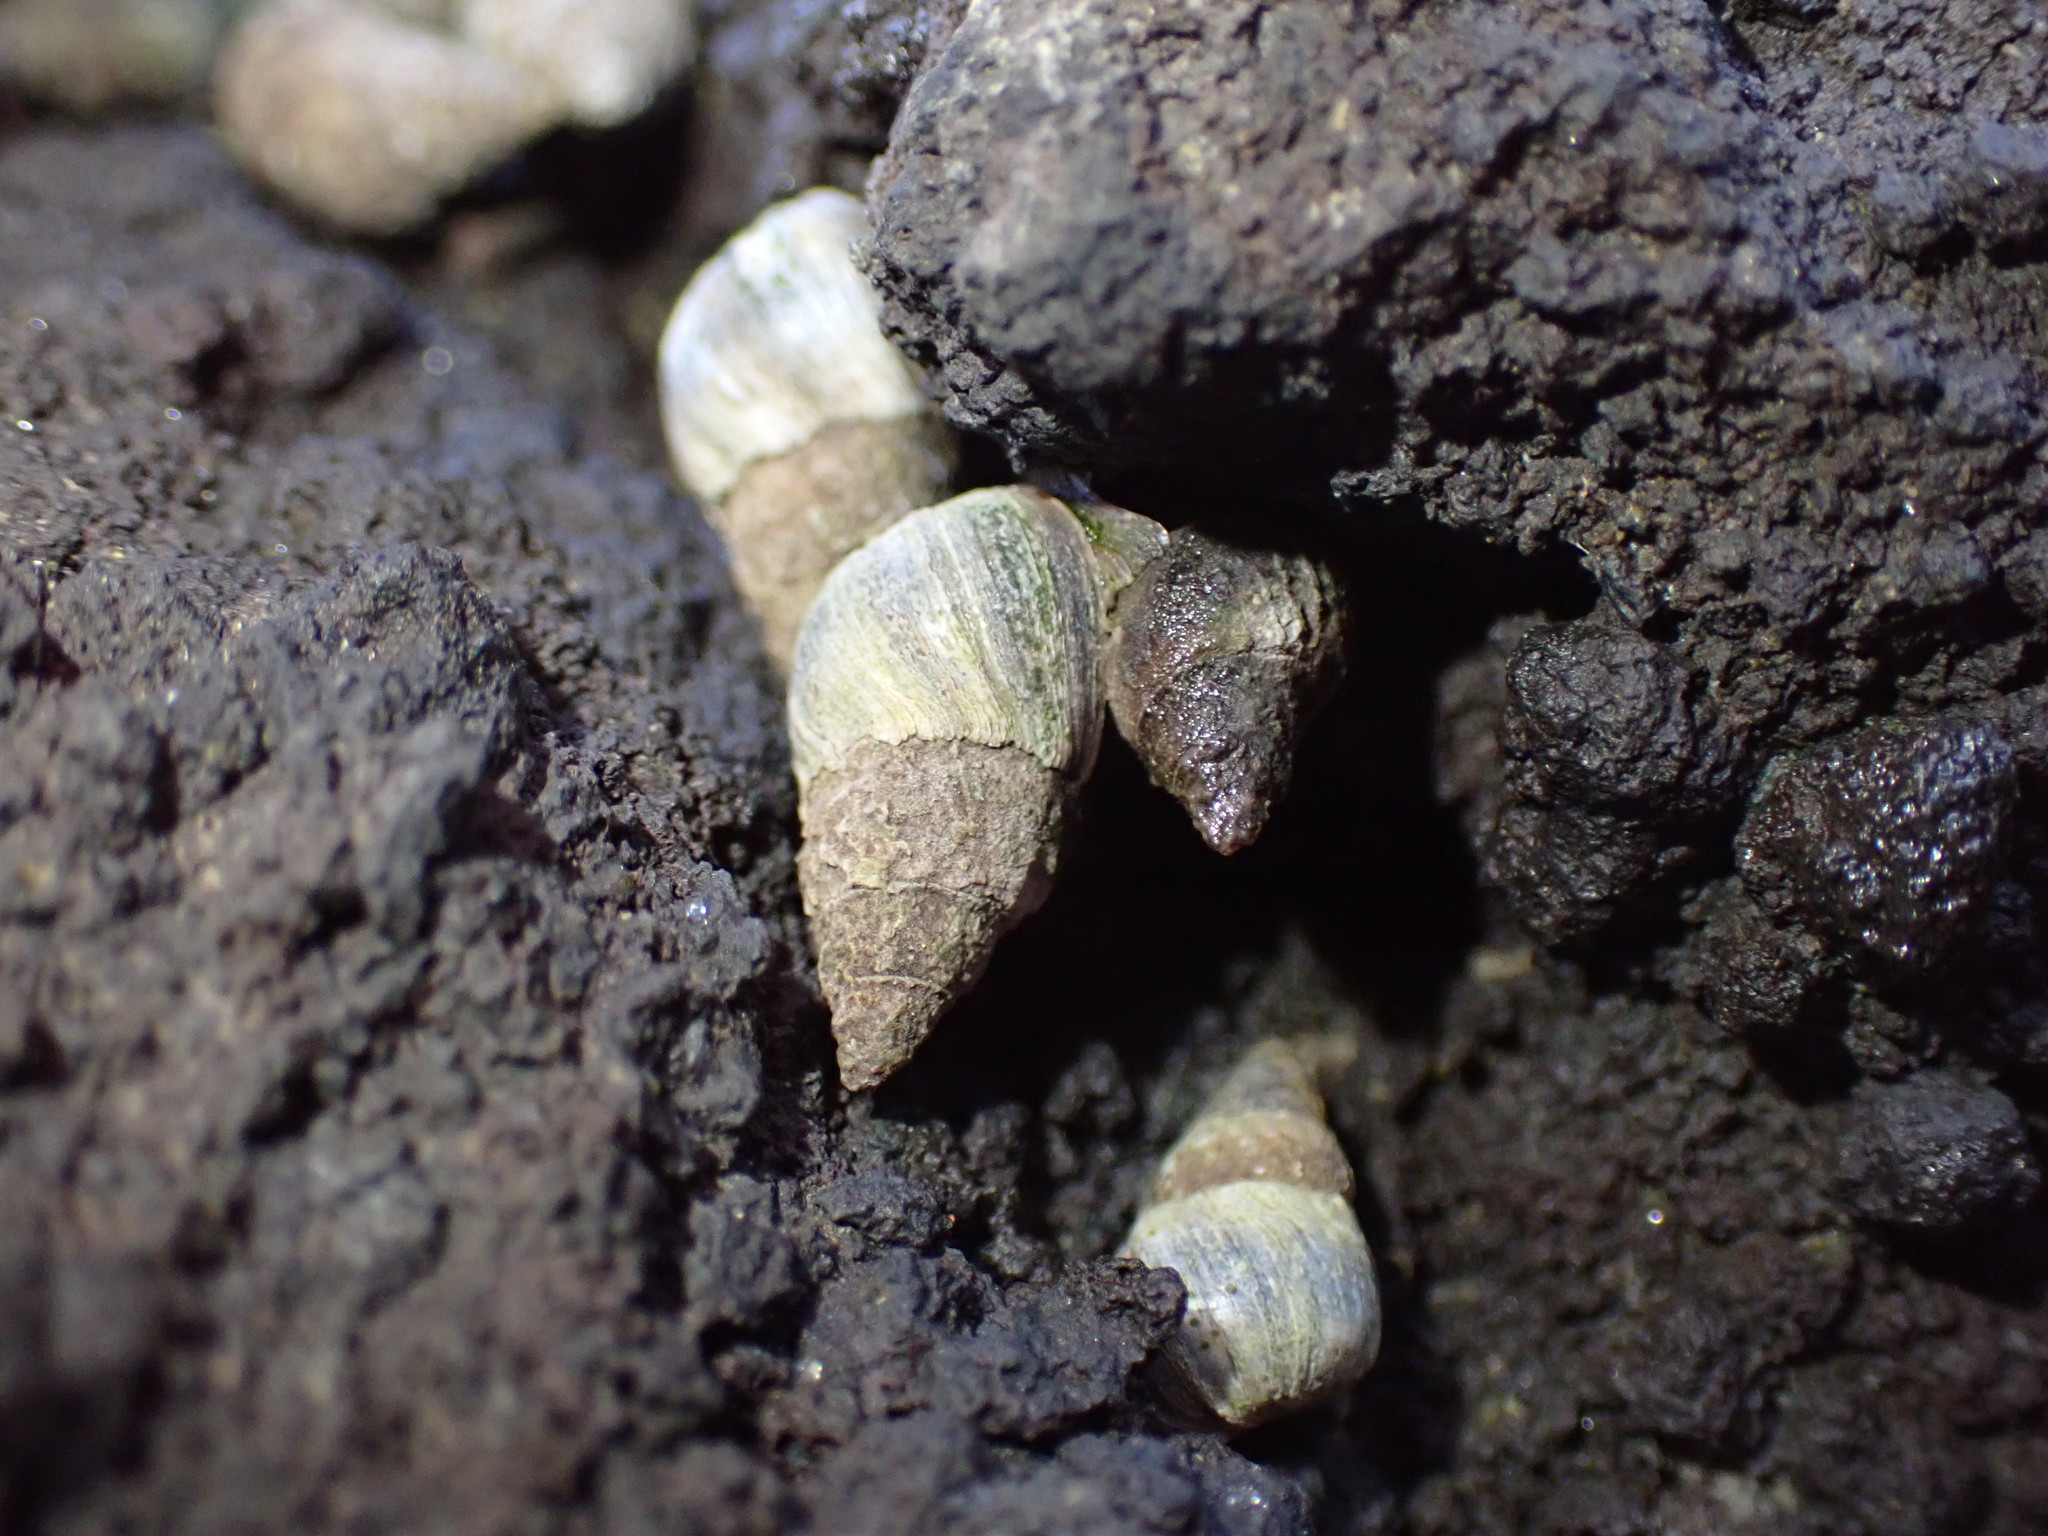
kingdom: Animalia
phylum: Mollusca
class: Gastropoda
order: Littorinimorpha
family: Littorinidae
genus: Austrolittorina
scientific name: Austrolittorina antipodum
